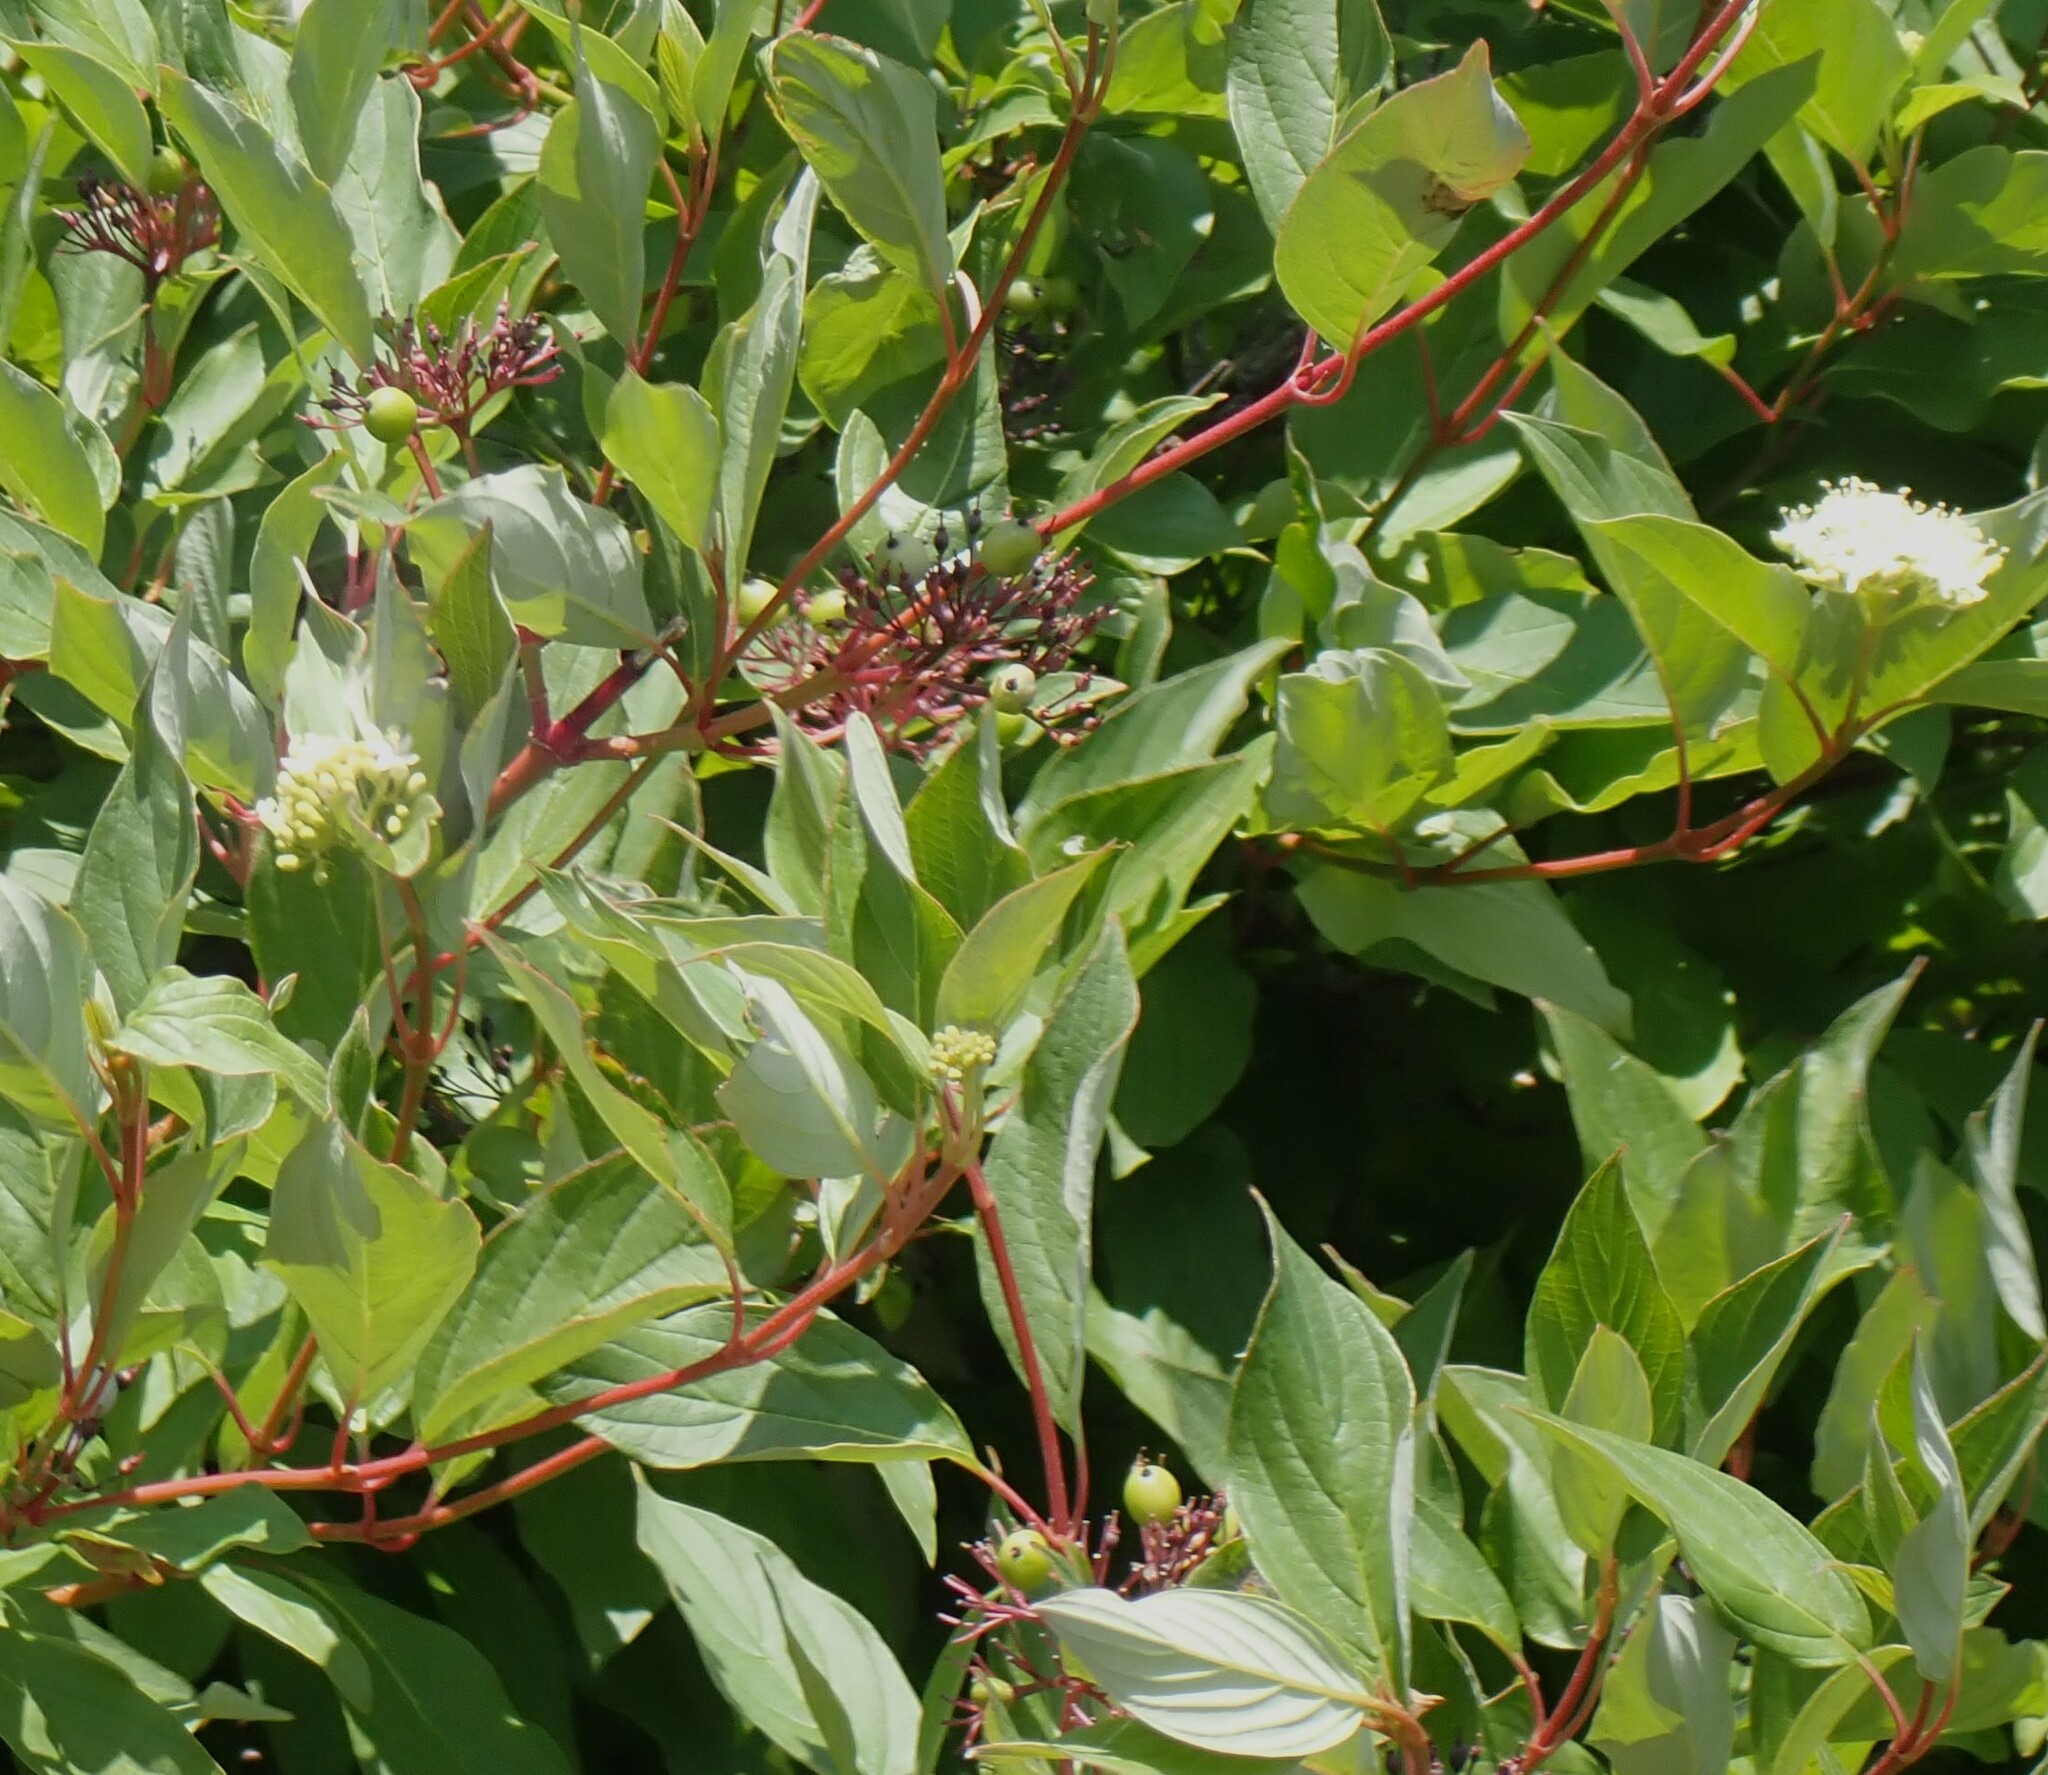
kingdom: Plantae
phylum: Tracheophyta
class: Magnoliopsida
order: Cornales
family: Cornaceae
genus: Cornus
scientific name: Cornus sericea
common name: Red-osier dogwood
